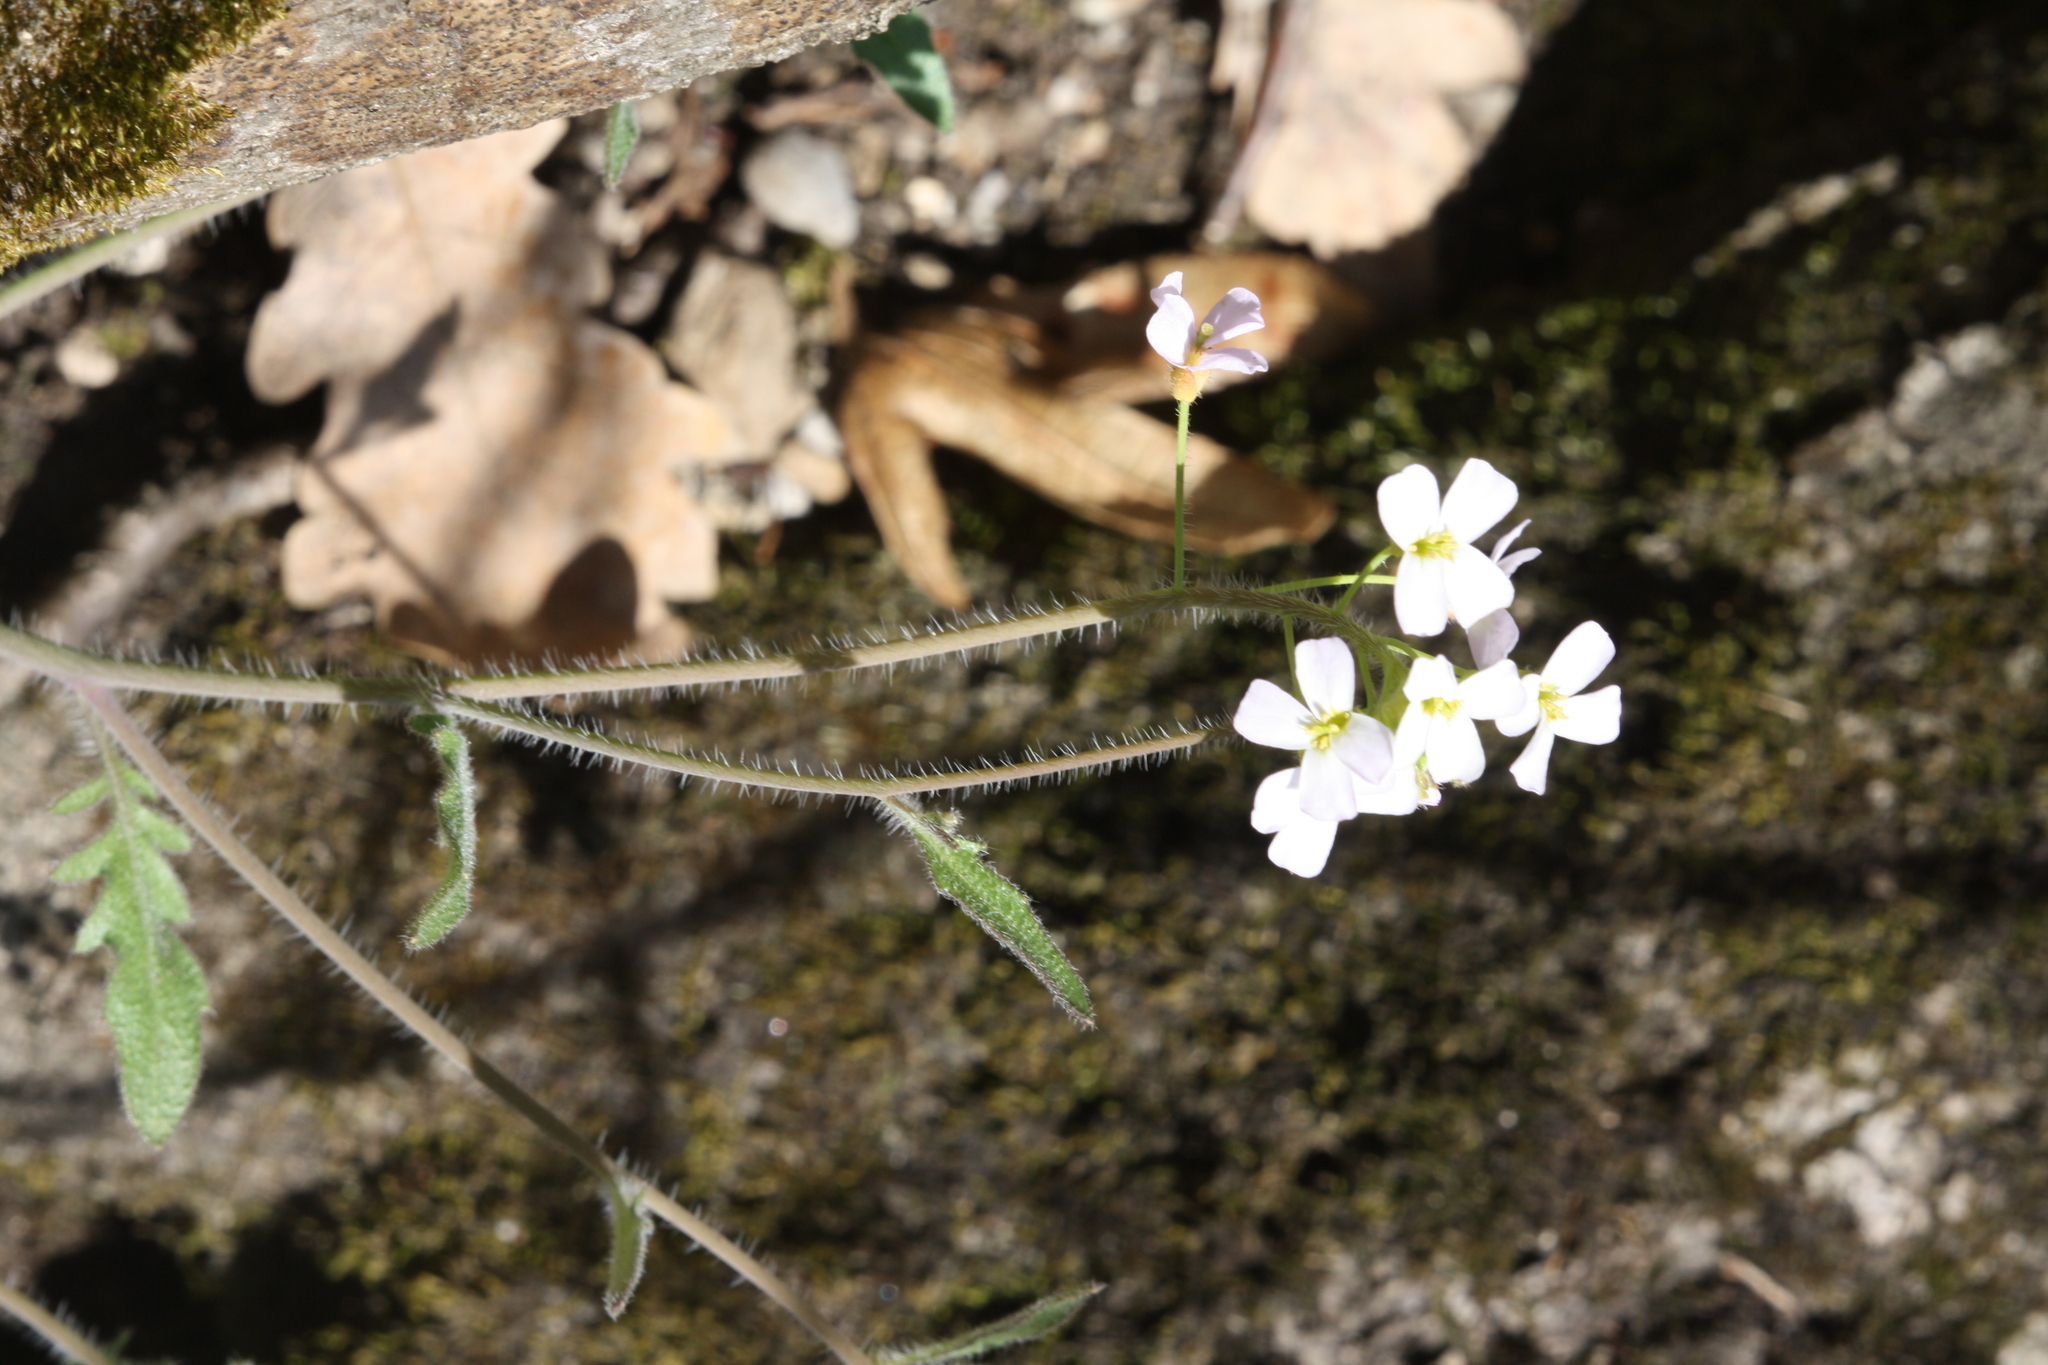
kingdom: Plantae
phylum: Tracheophyta
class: Magnoliopsida
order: Brassicales
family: Brassicaceae
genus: Arabidopsis
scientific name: Arabidopsis arenosa
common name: Sand rock-cress
